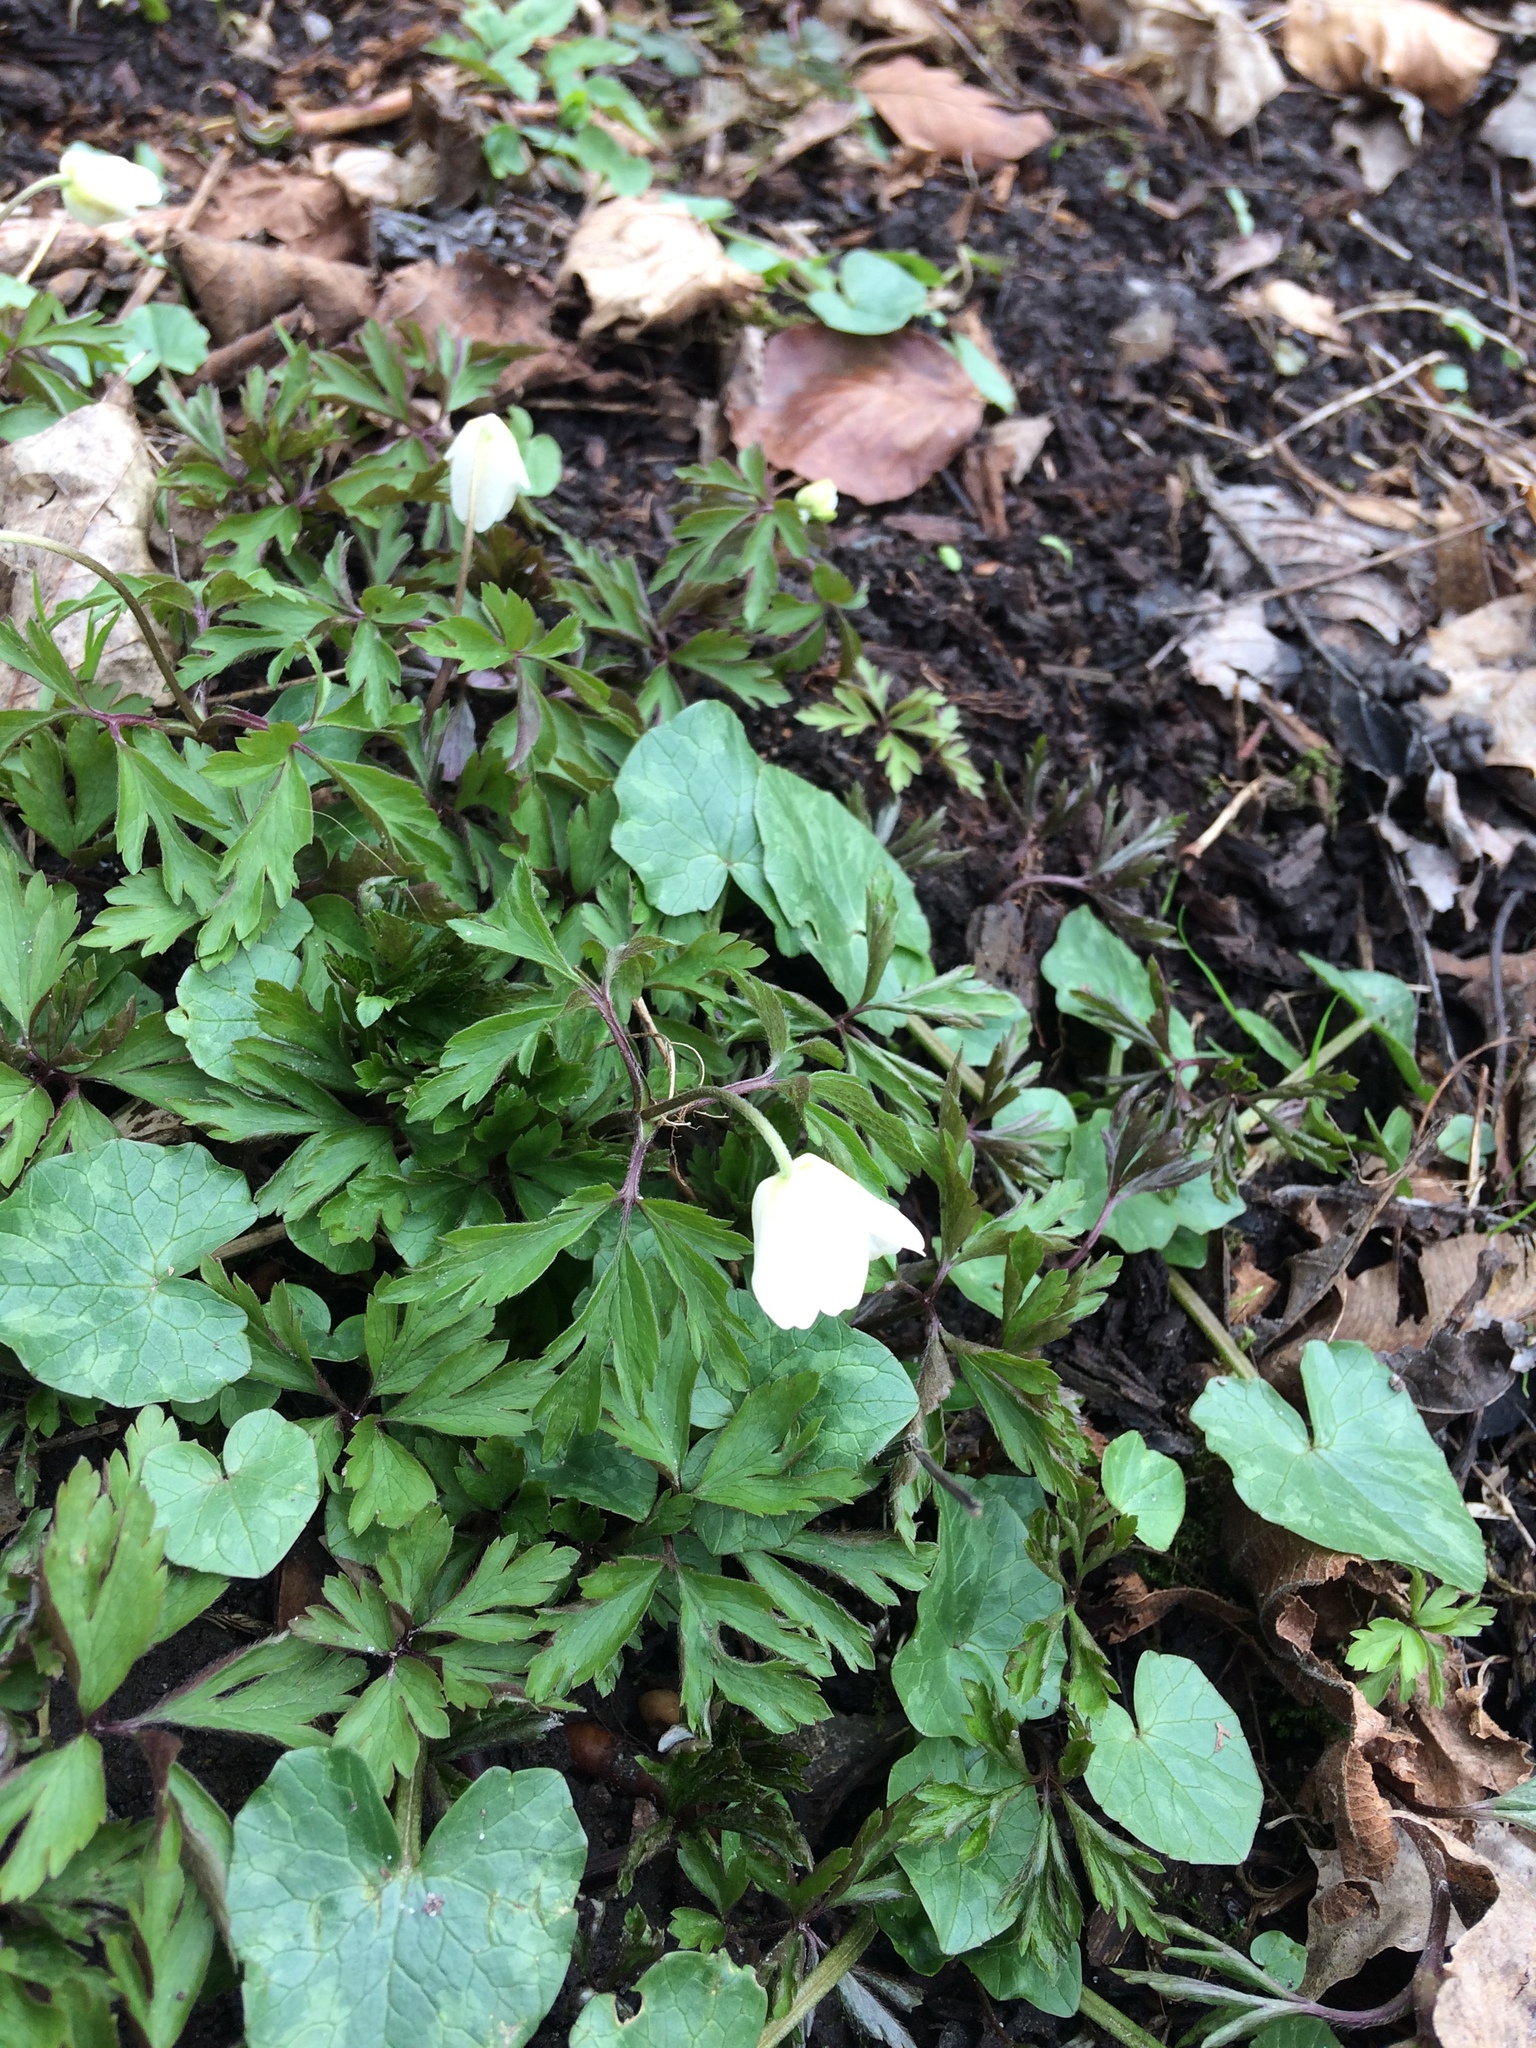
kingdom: Plantae
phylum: Tracheophyta
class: Magnoliopsida
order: Ranunculales
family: Ranunculaceae
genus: Anemone
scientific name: Anemone nemorosa
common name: Wood anemone
